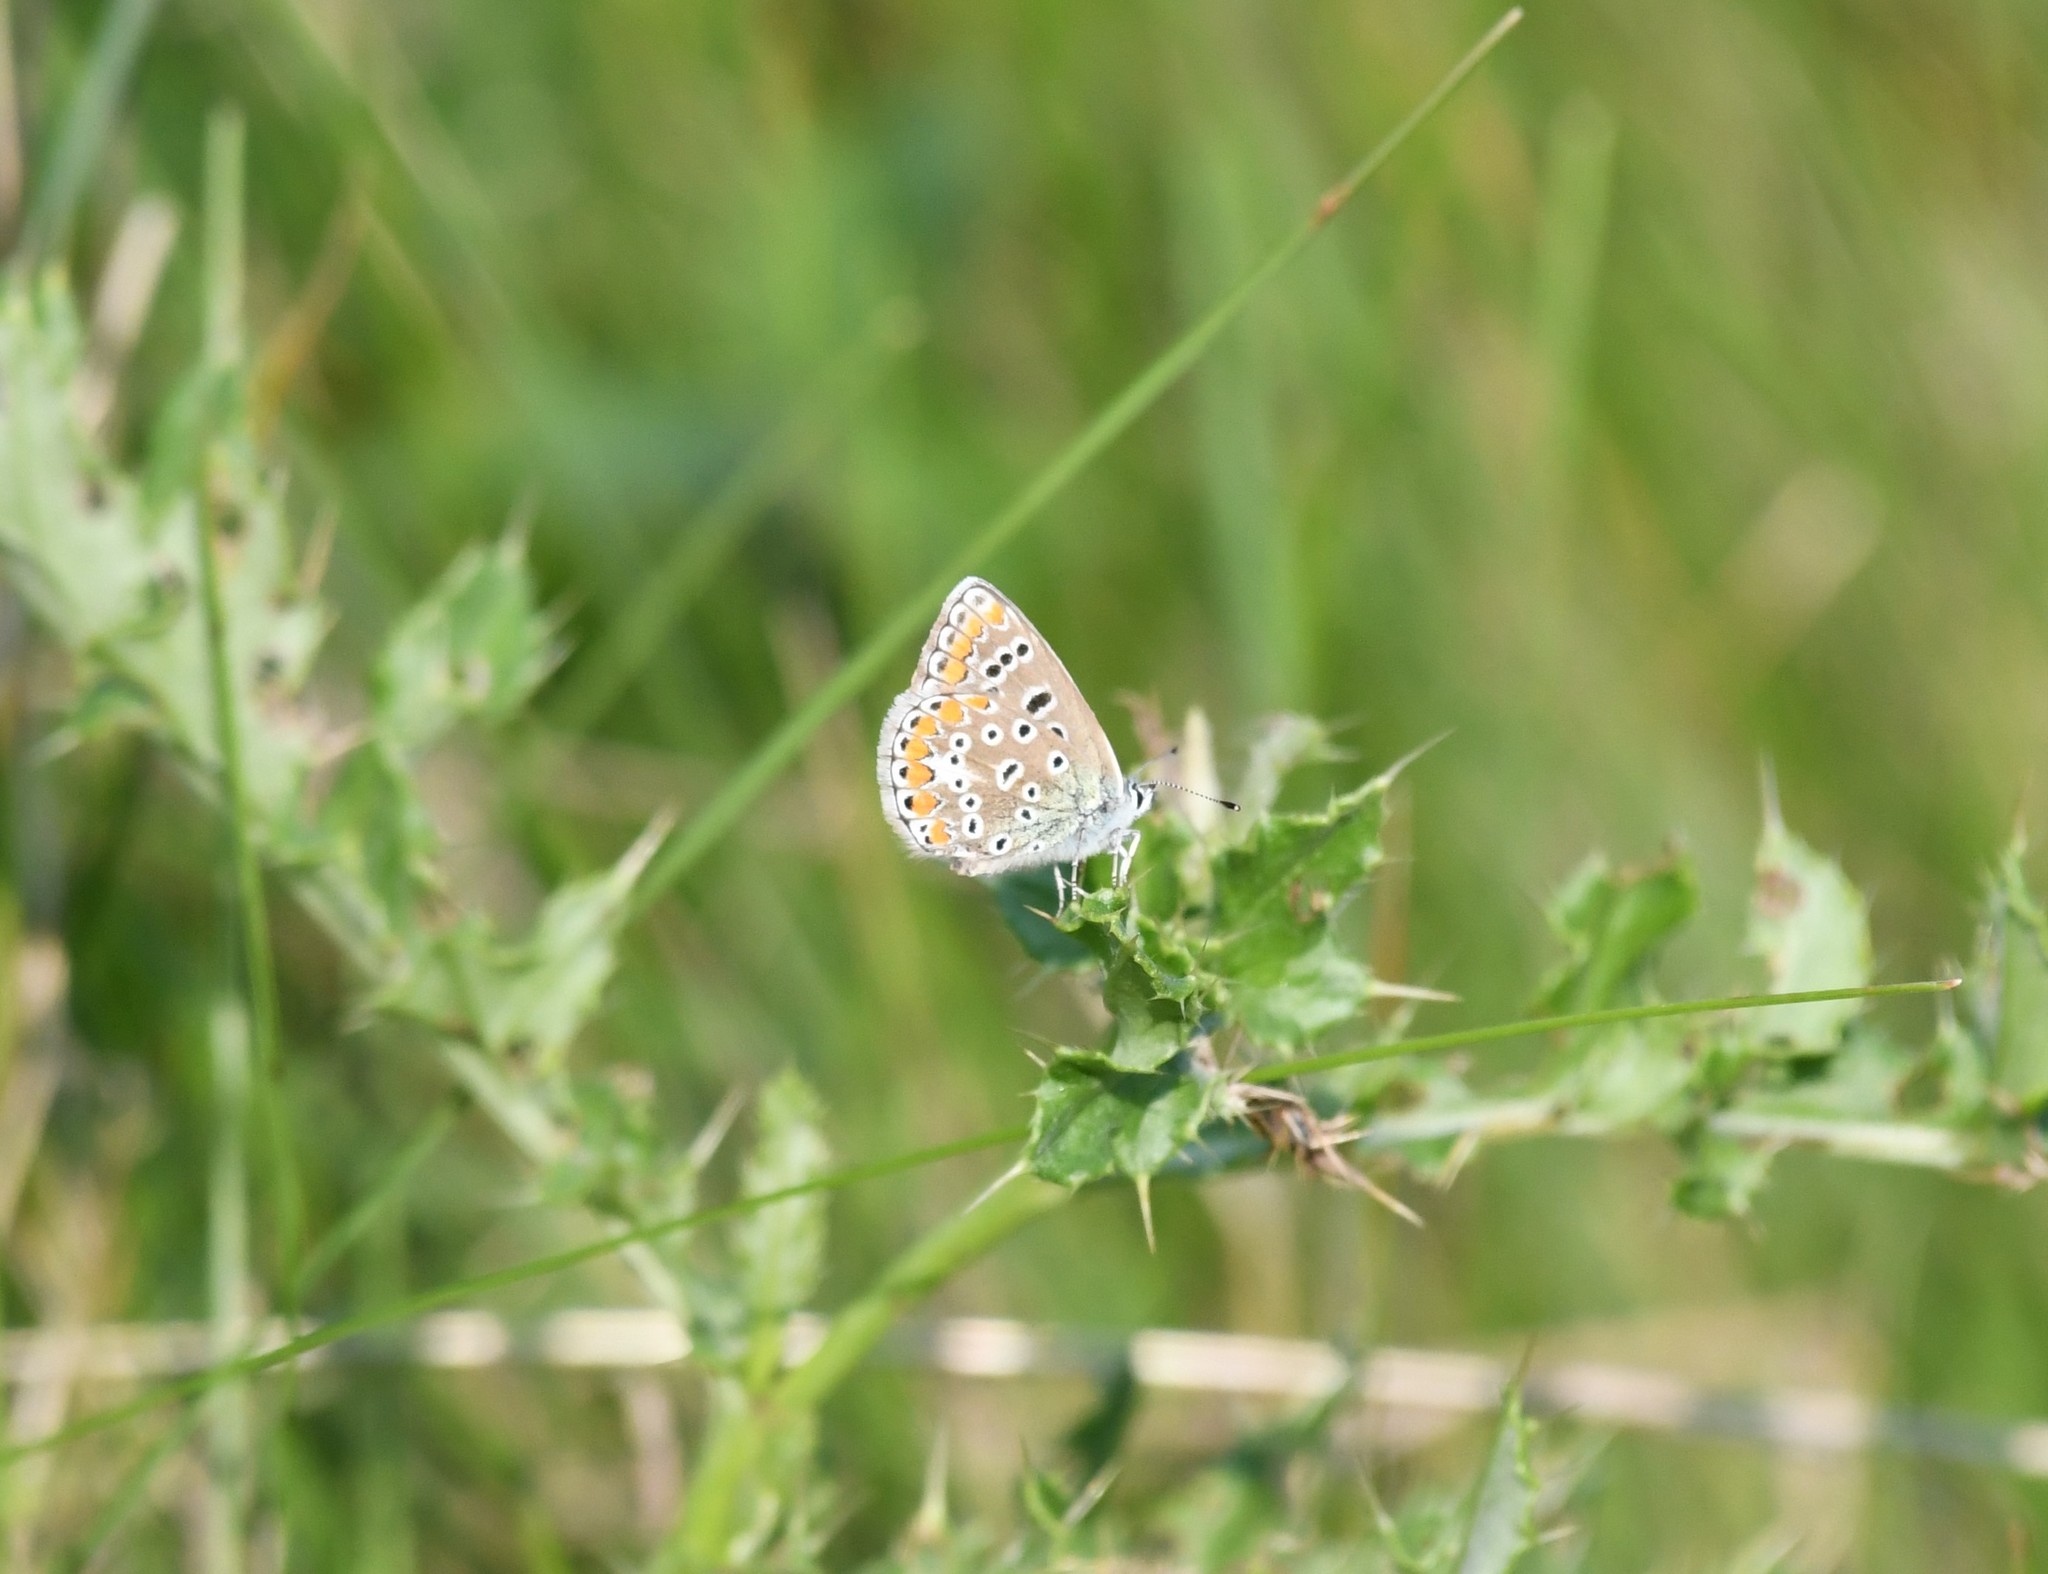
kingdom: Animalia
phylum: Arthropoda
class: Insecta
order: Lepidoptera
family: Lycaenidae
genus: Polyommatus
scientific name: Polyommatus icarus
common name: Common blue
